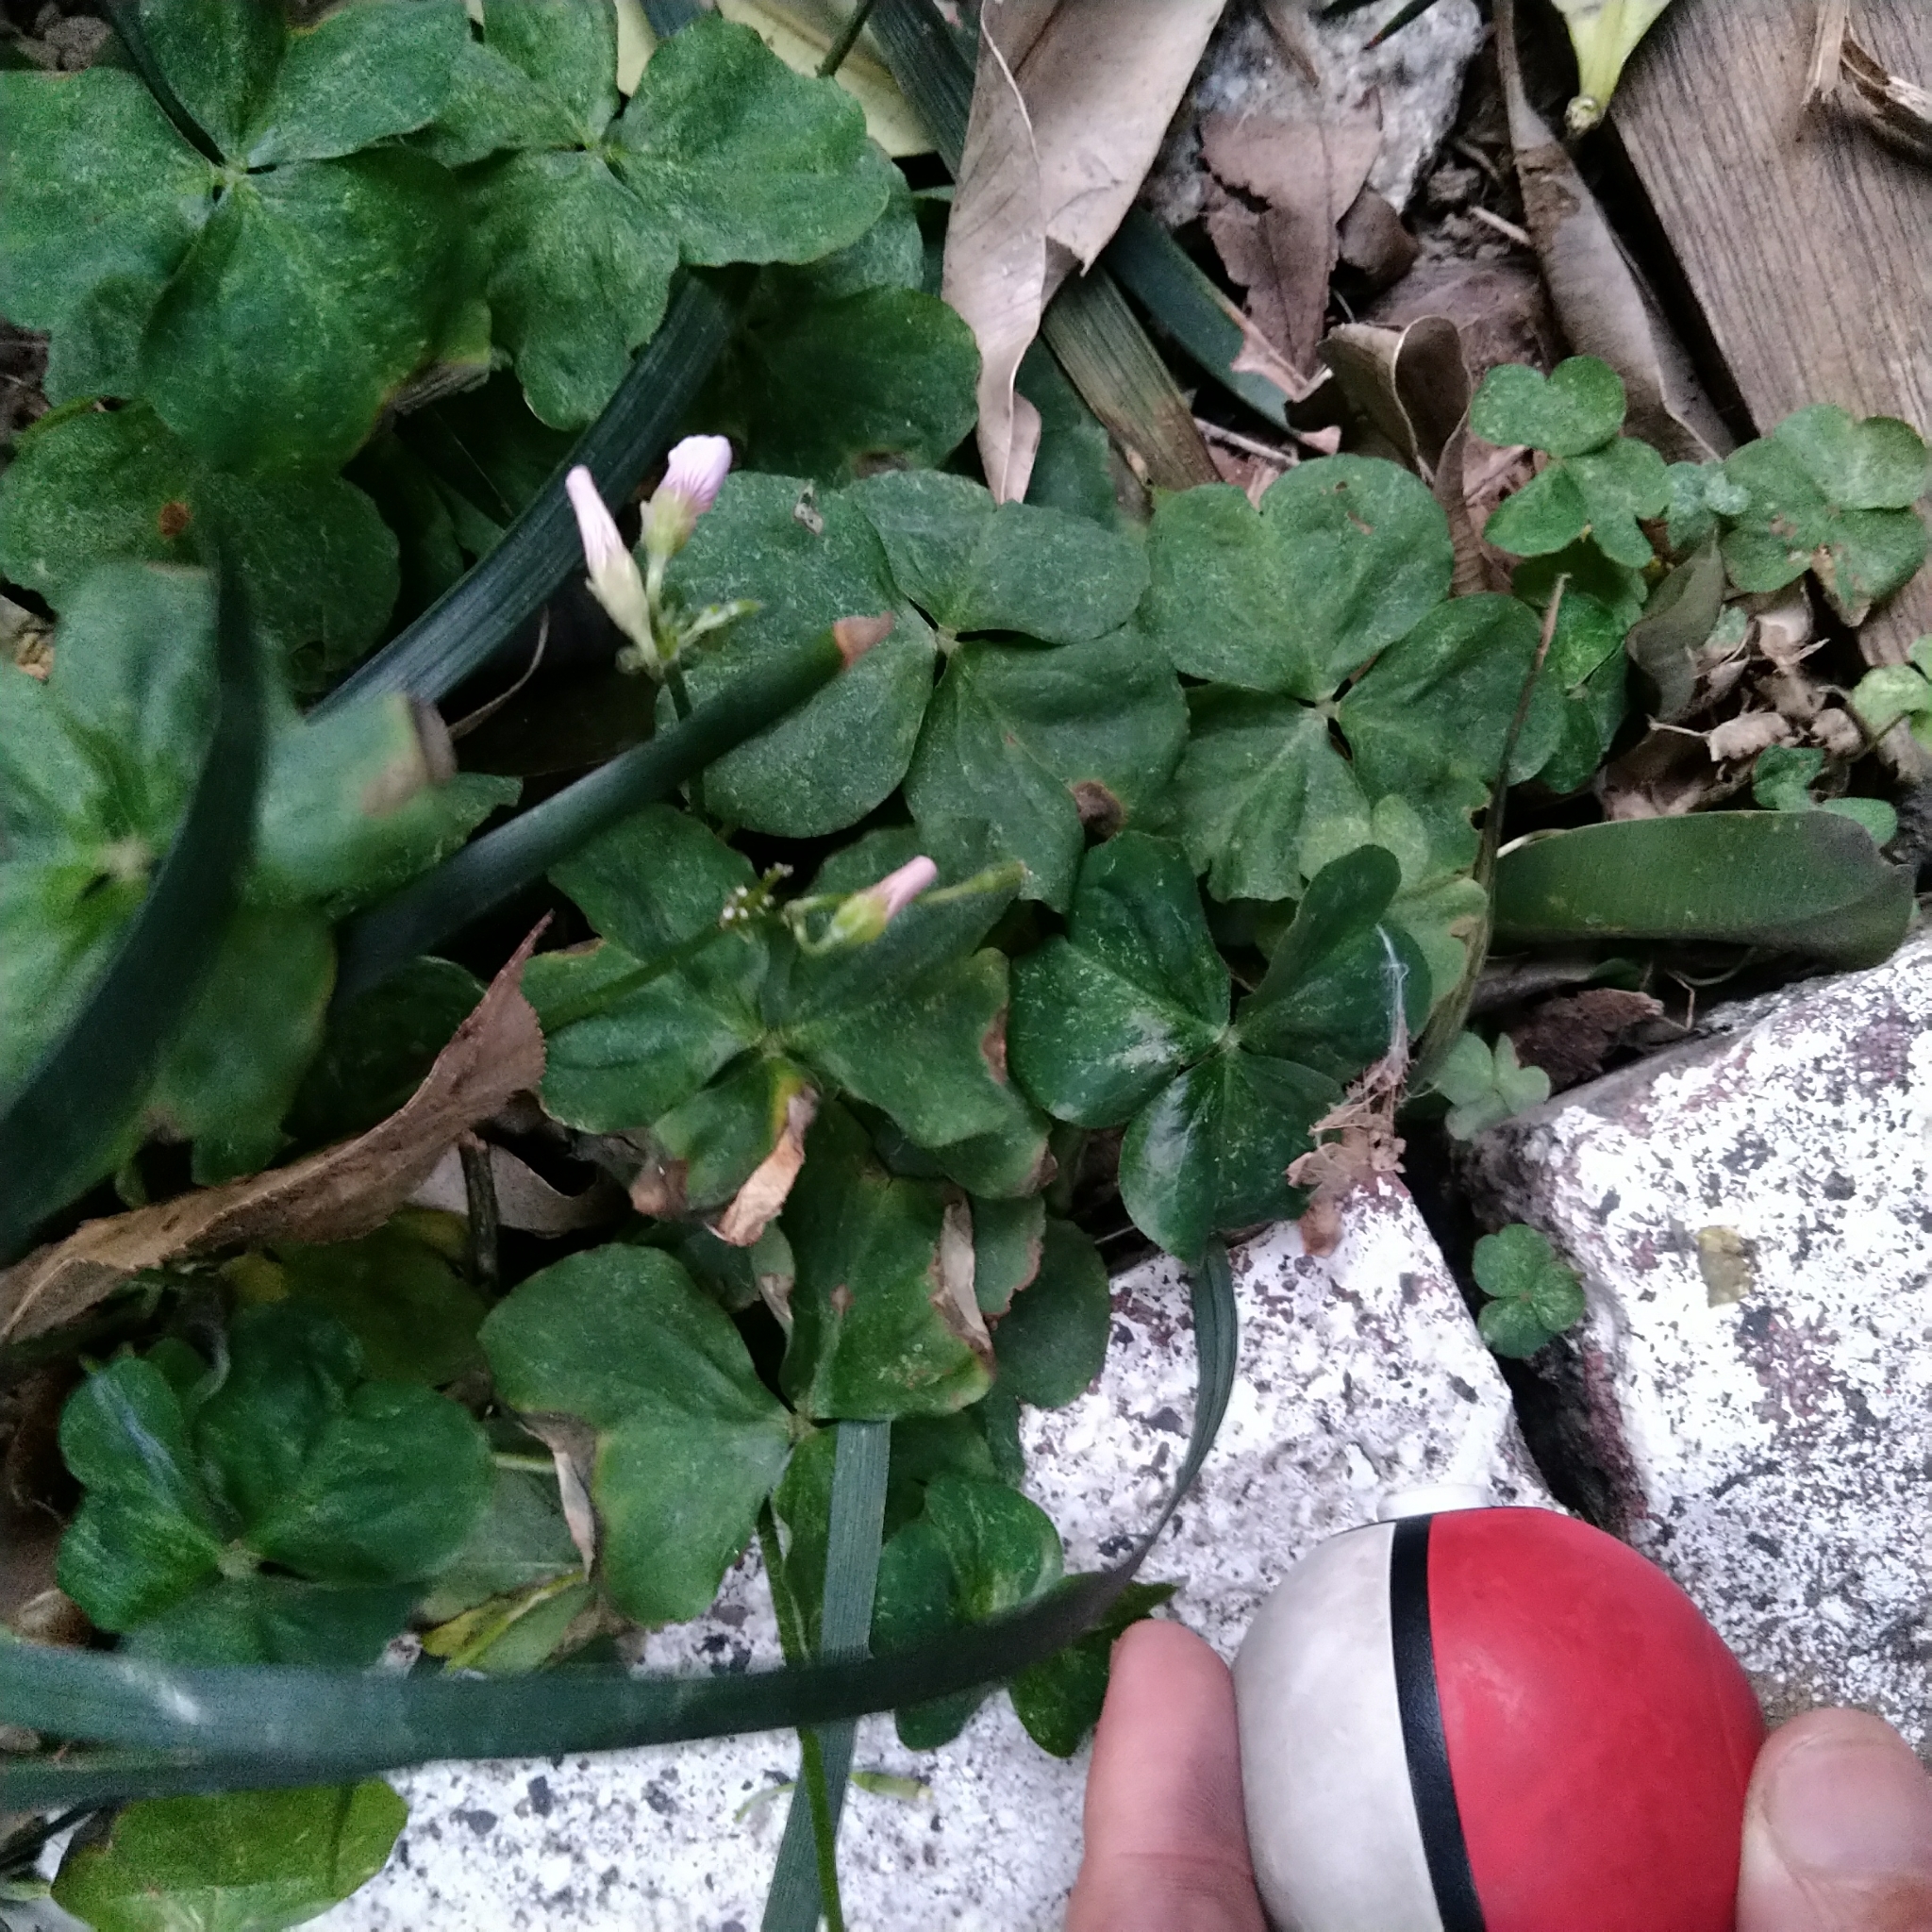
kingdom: Plantae
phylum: Tracheophyta
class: Magnoliopsida
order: Oxalidales
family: Oxalidaceae
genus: Oxalis
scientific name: Oxalis debilis
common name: Large-flowered pink-sorrel
